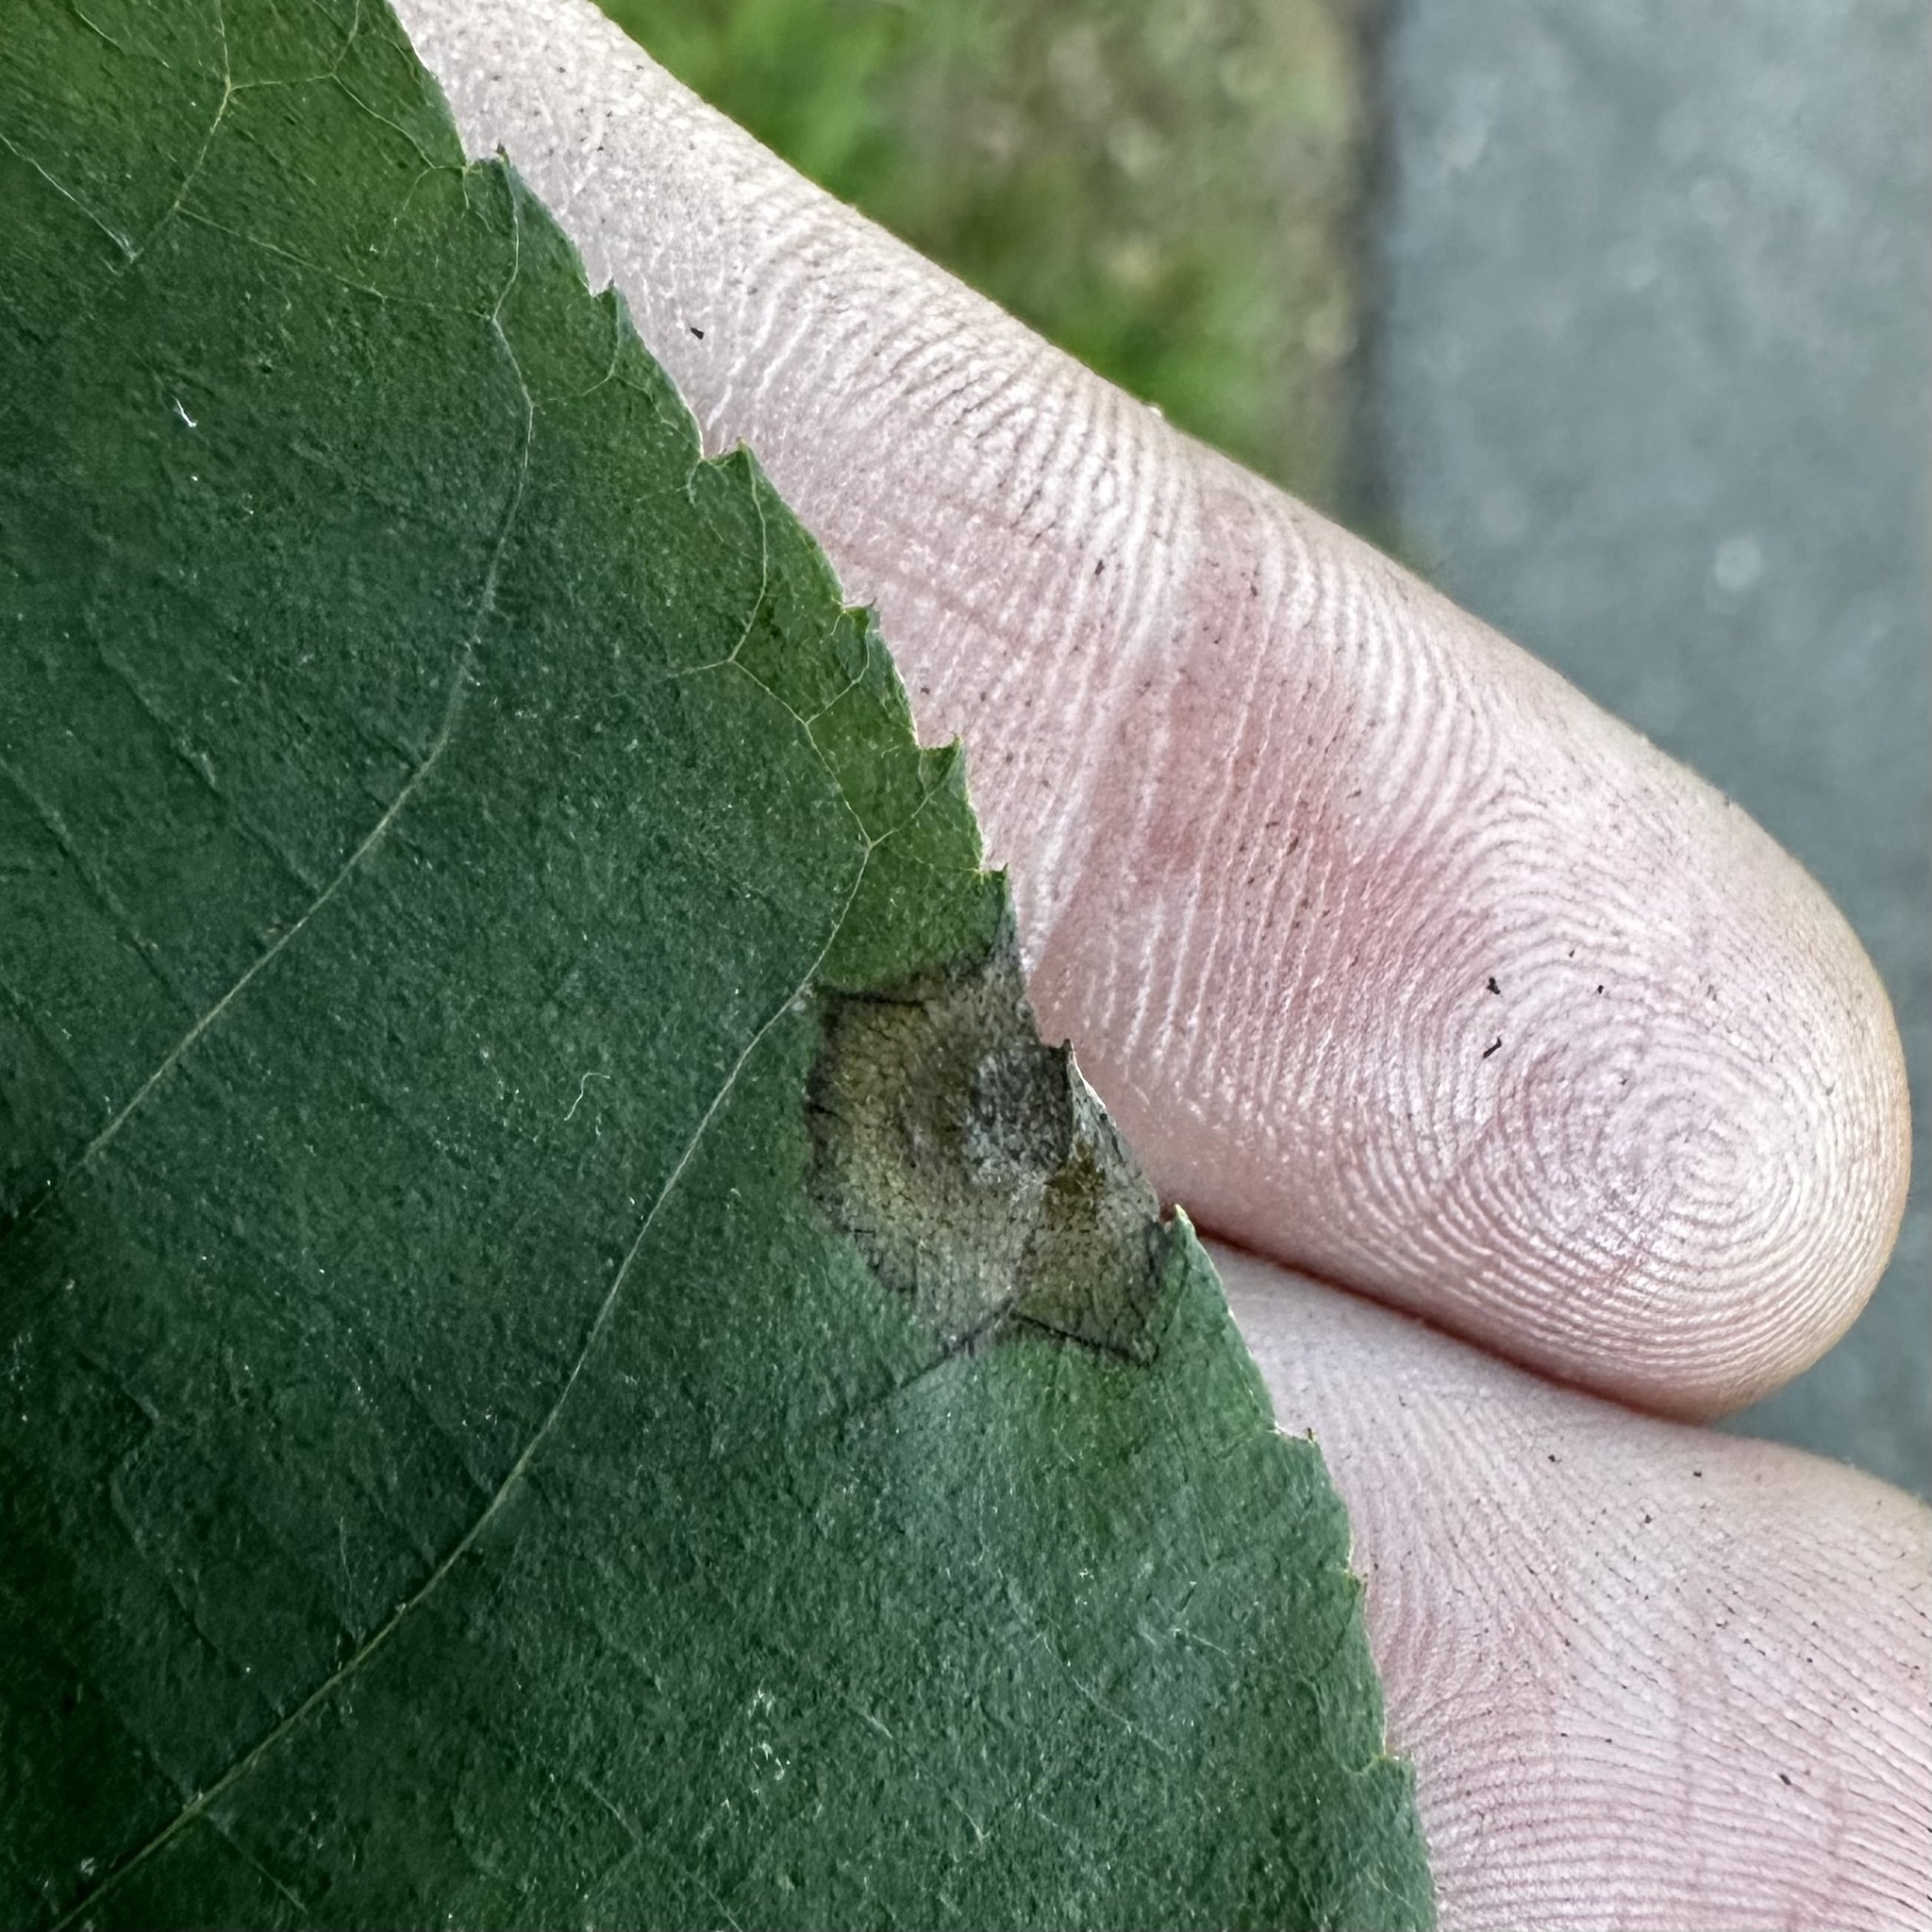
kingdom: Animalia
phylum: Arthropoda
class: Insecta
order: Diptera
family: Cecidomyiidae
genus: Gliaspilota
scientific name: Gliaspilota glutinosa
